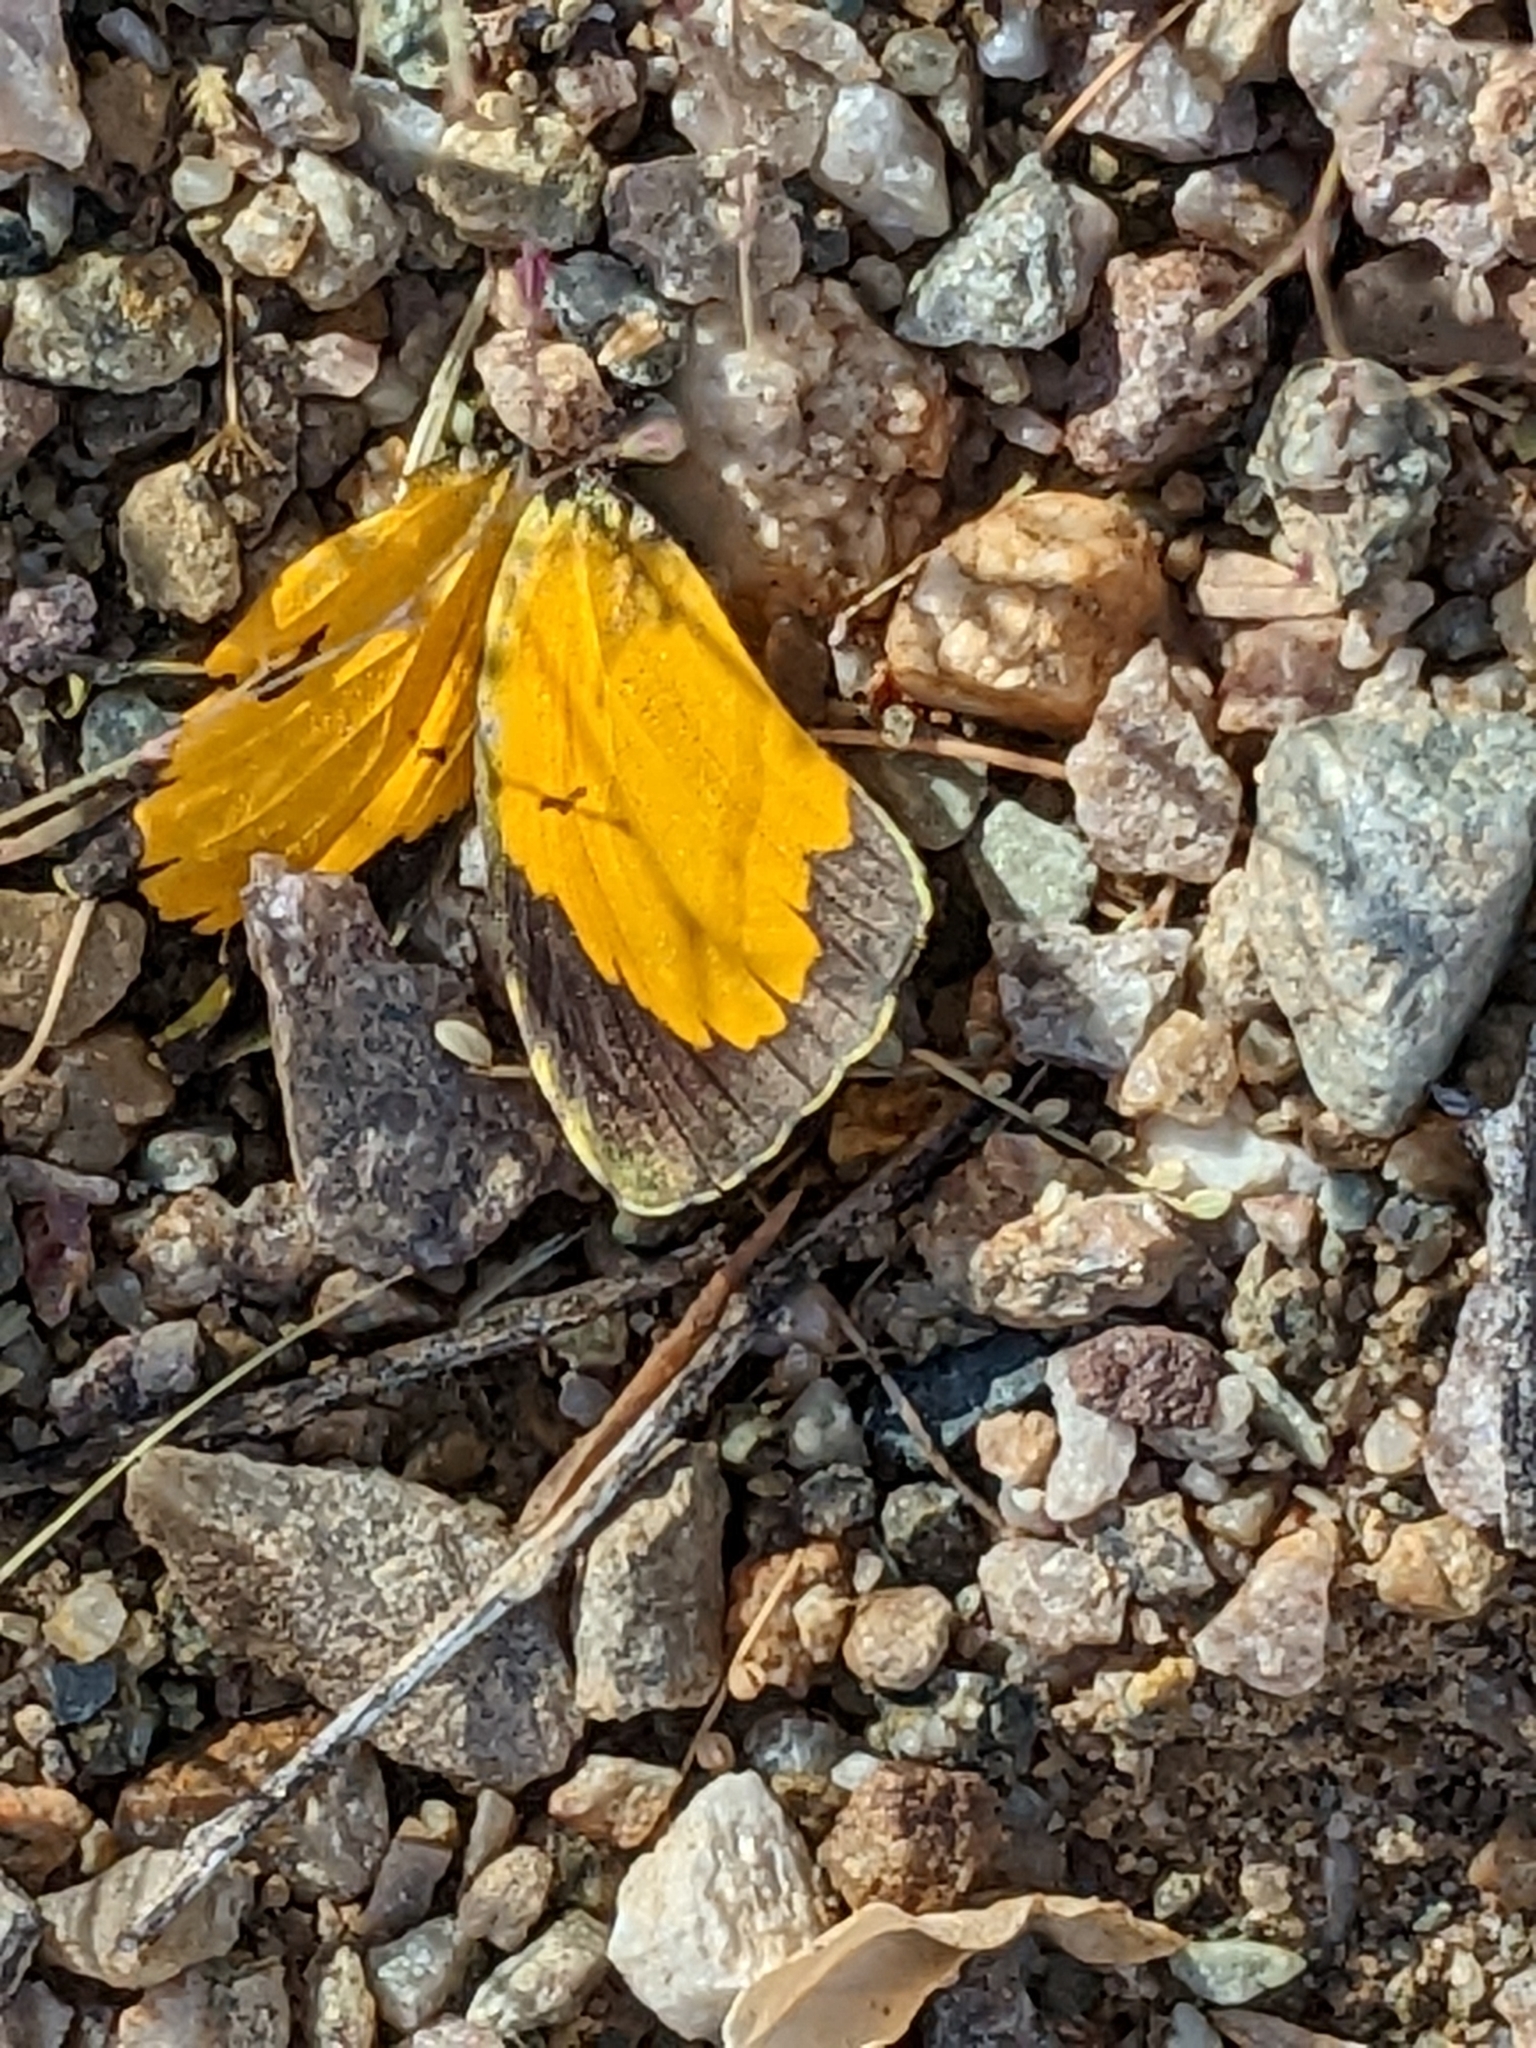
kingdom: Animalia
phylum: Arthropoda
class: Insecta
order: Lepidoptera
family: Pieridae
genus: Abaeis
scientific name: Abaeis nicippe
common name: Sleepy orange
